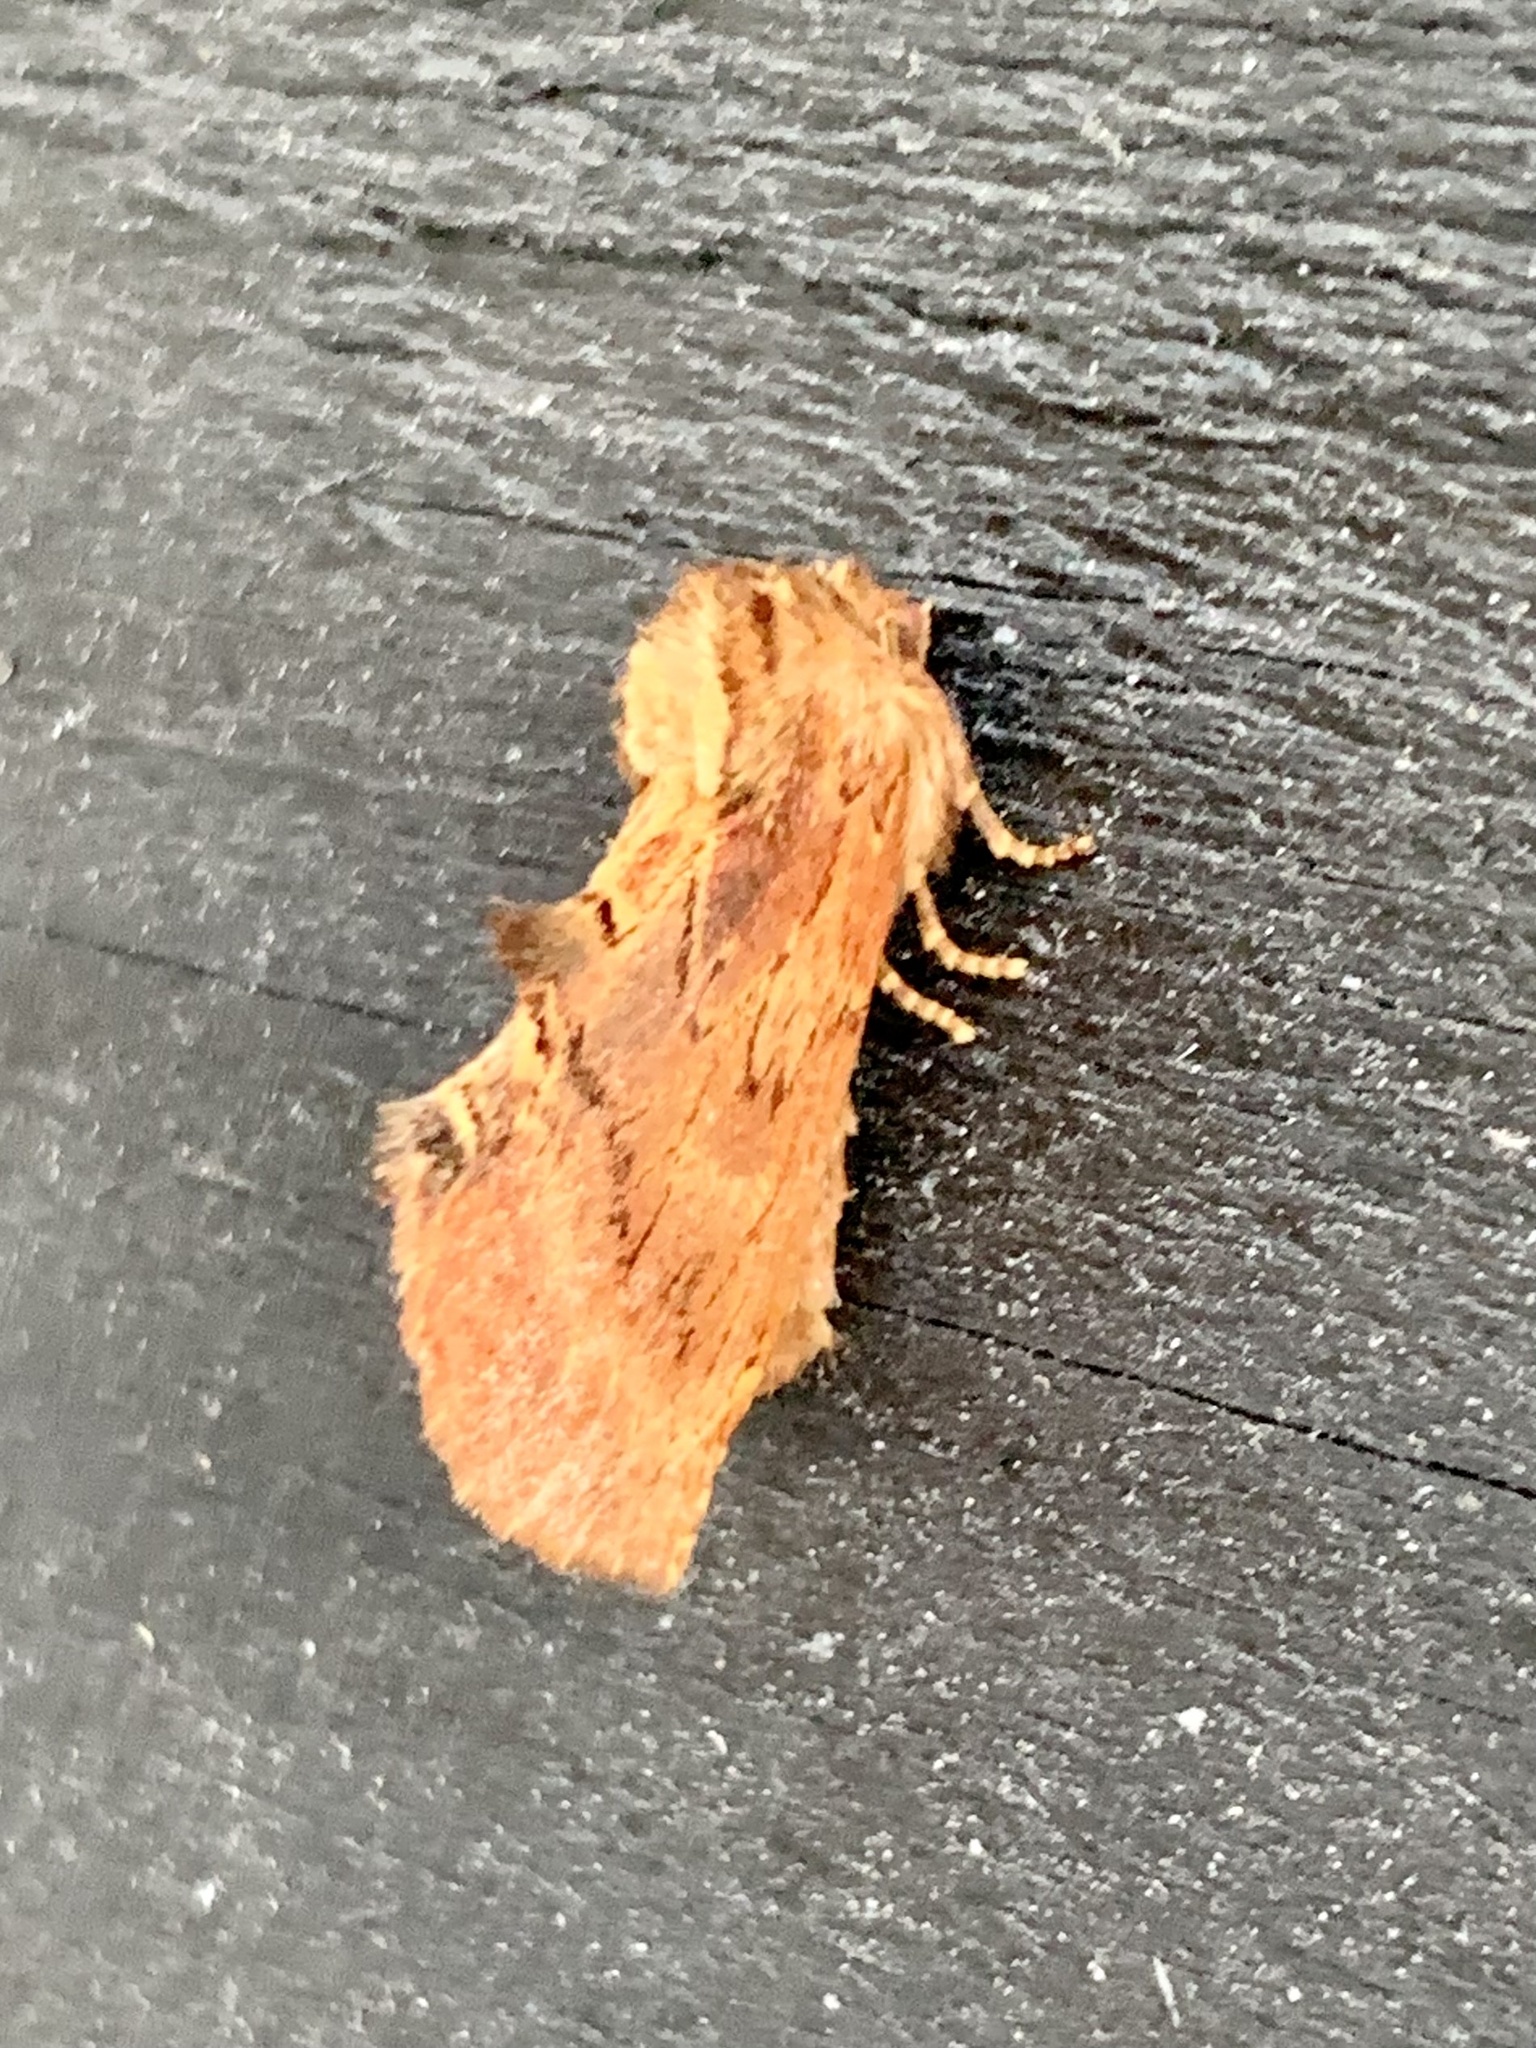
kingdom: Animalia
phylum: Arthropoda
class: Insecta
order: Lepidoptera
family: Notodontidae
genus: Ptilodon
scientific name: Ptilodon capucina
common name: Coxcomb prominent
